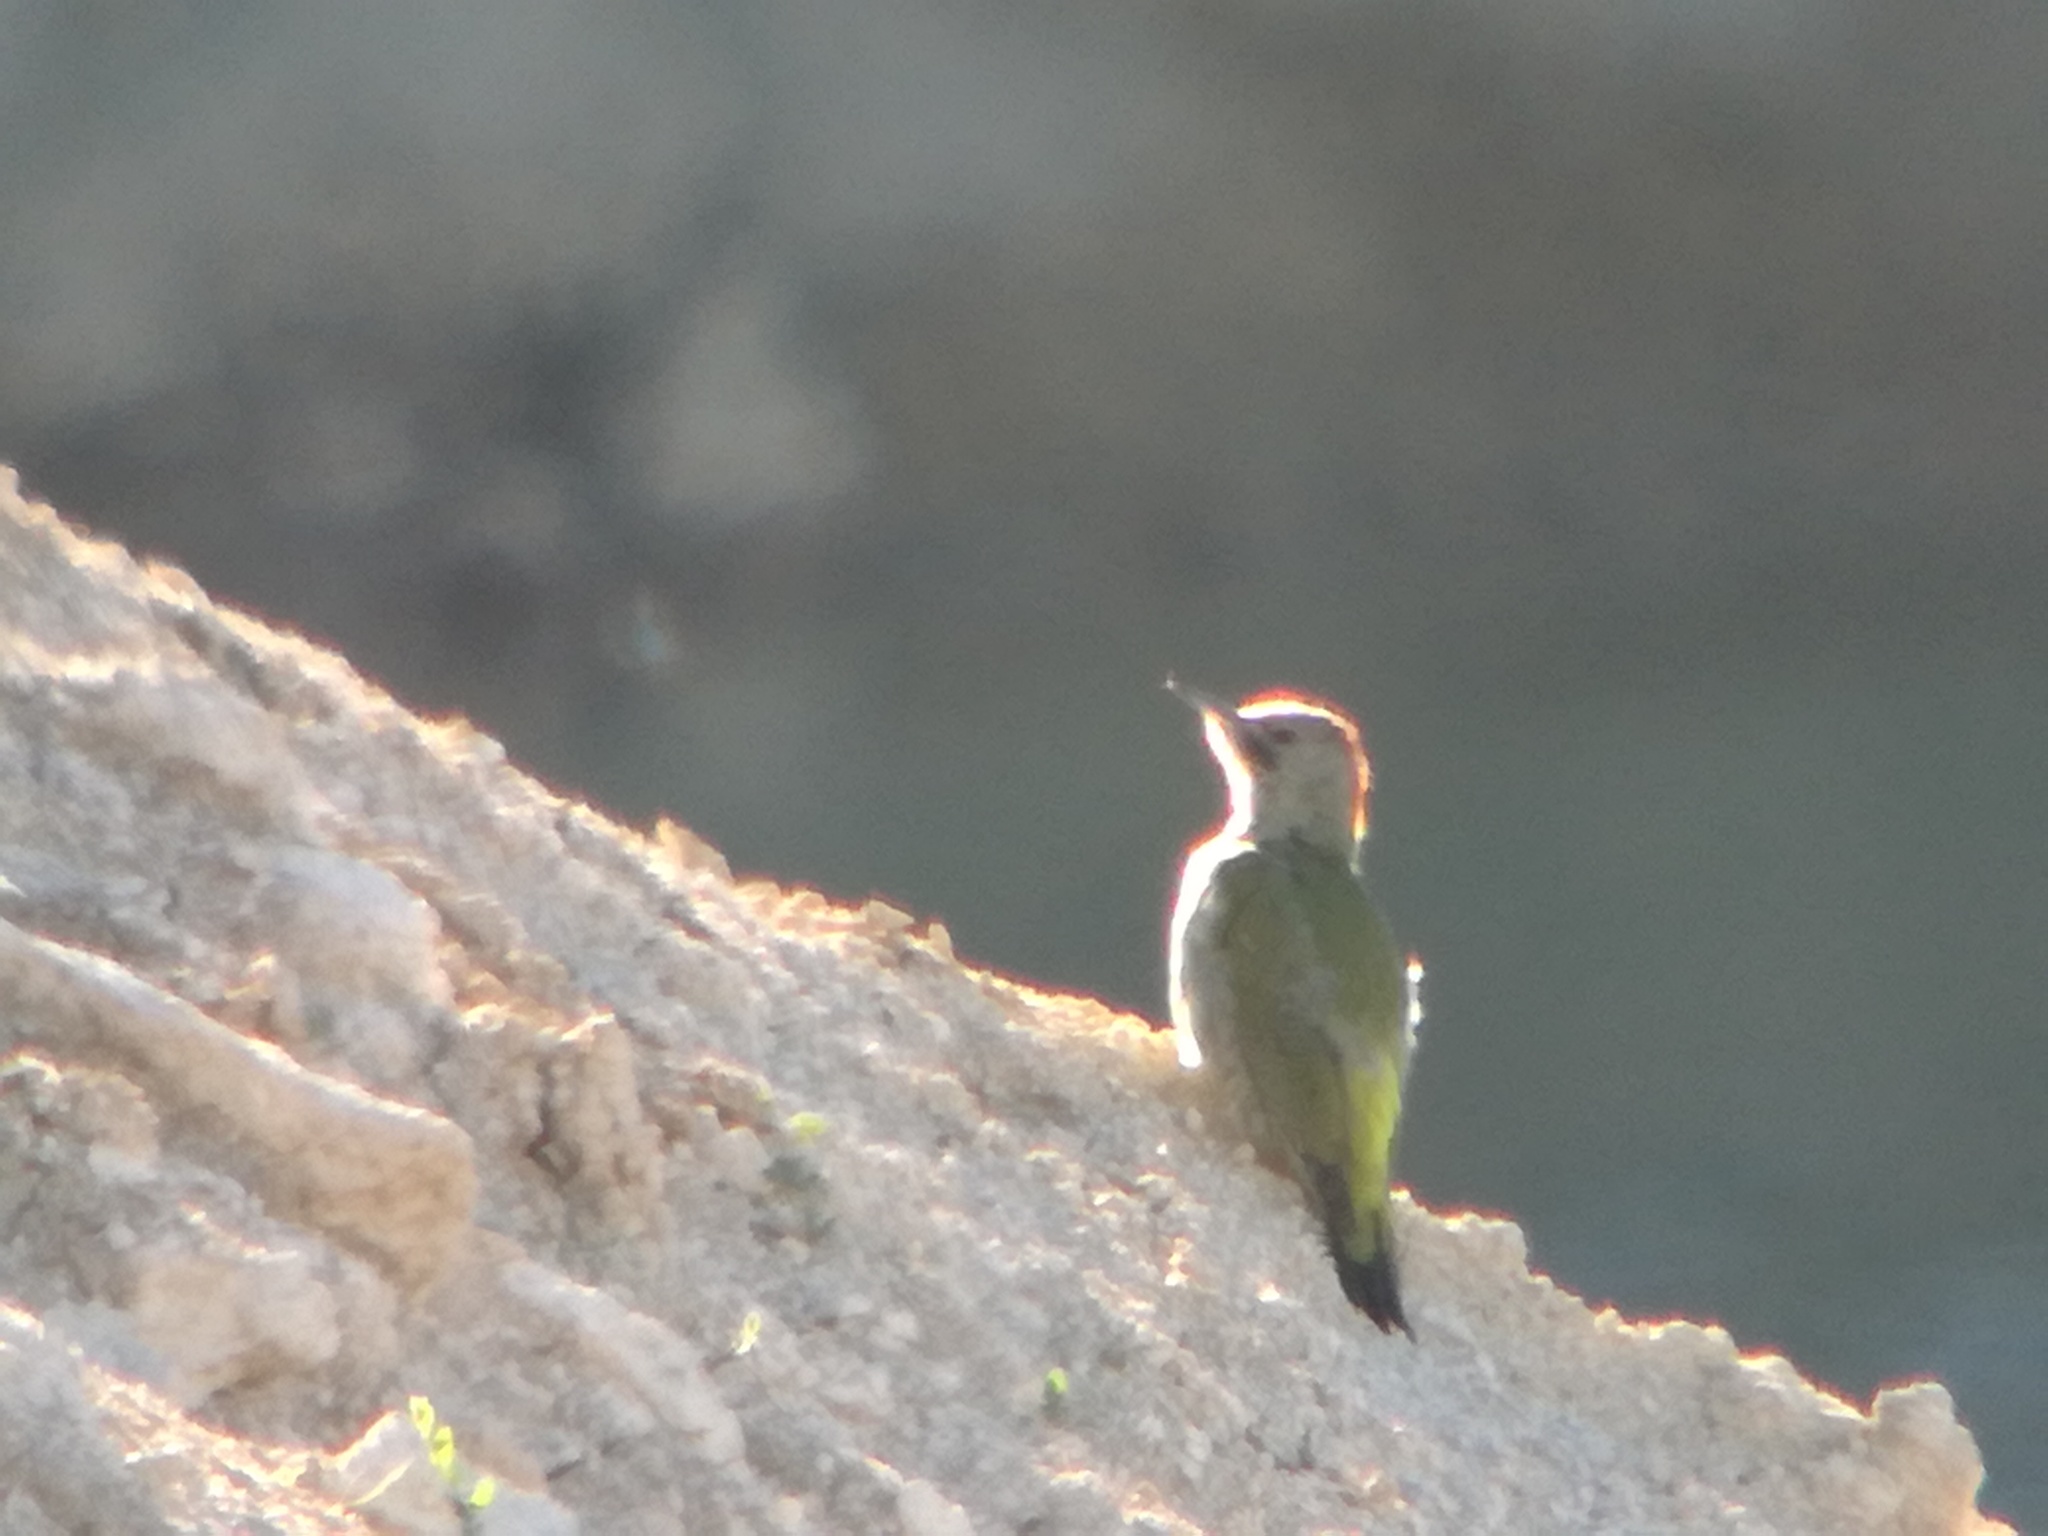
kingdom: Animalia
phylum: Chordata
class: Aves
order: Piciformes
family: Picidae
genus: Picus
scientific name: Picus sharpei
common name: Iberian green woodpecker
